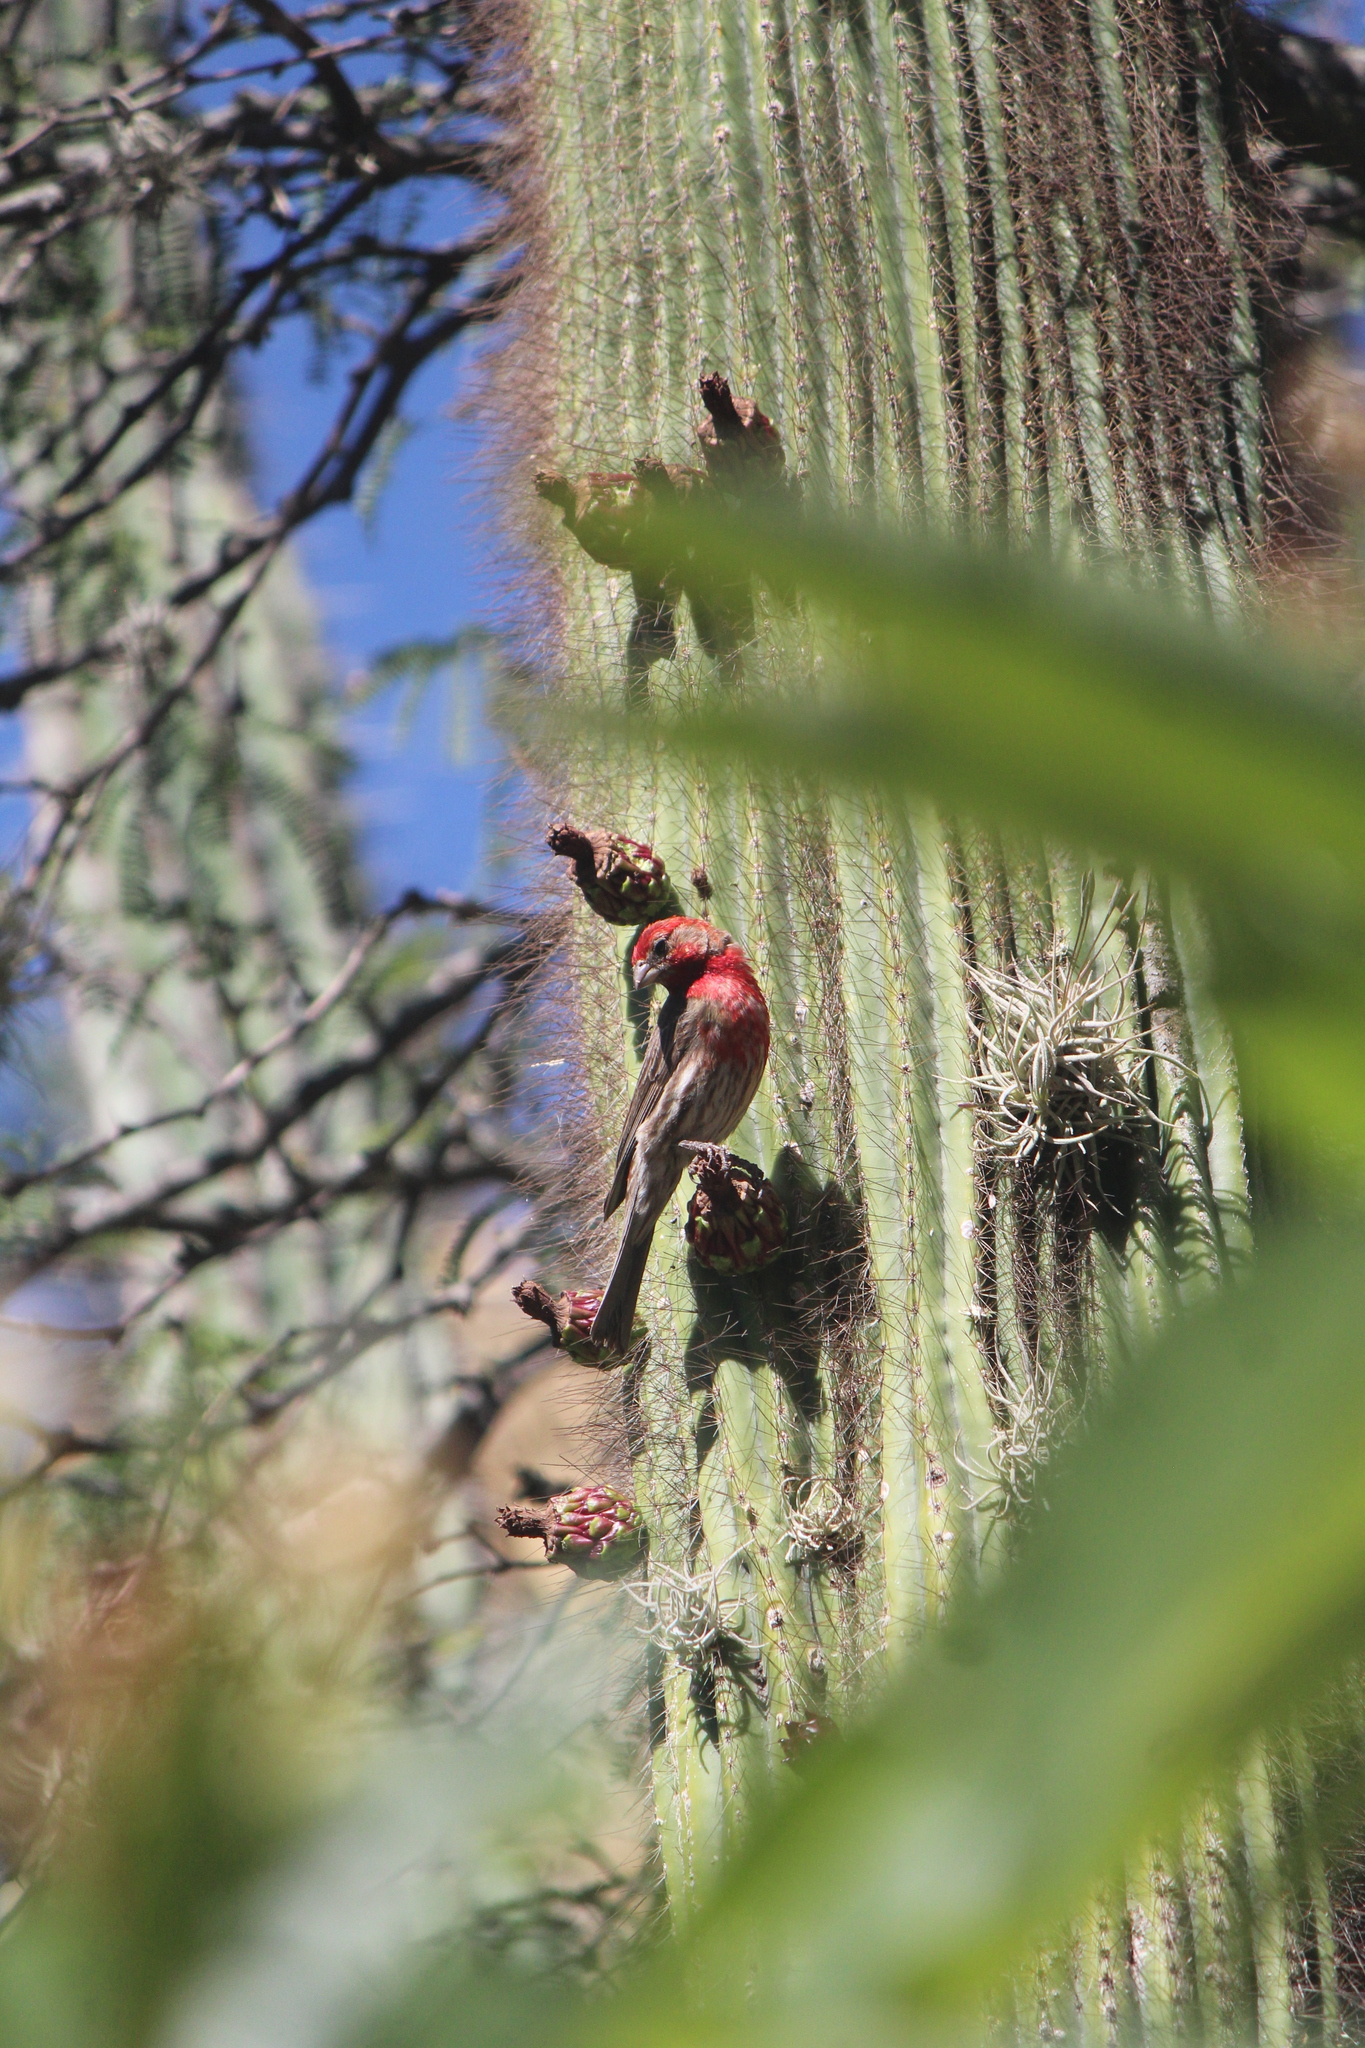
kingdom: Animalia
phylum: Chordata
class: Aves
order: Passeriformes
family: Fringillidae
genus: Haemorhous
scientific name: Haemorhous mexicanus
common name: House finch
